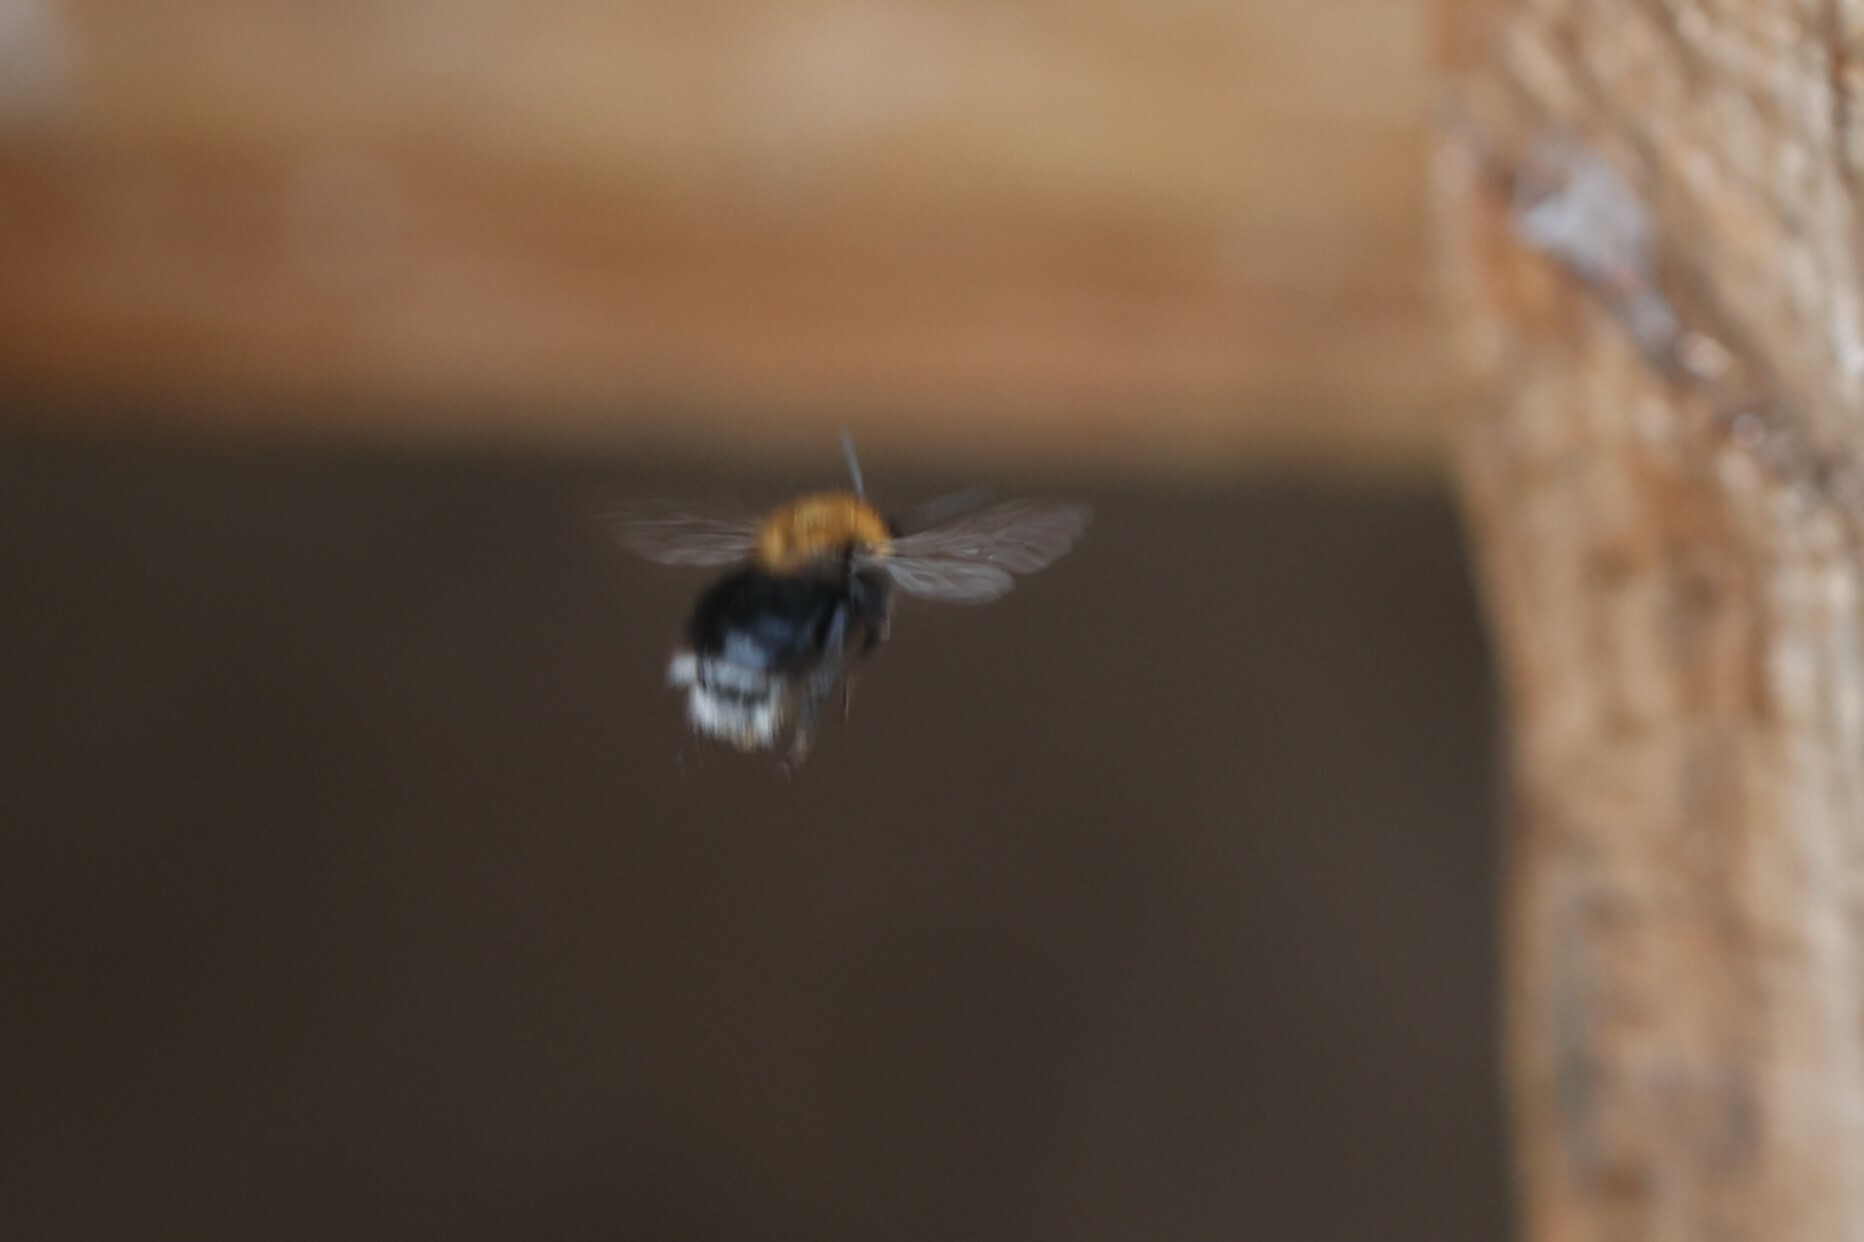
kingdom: Animalia
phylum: Arthropoda
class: Insecta
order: Hymenoptera
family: Apidae
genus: Bombus
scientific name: Bombus hypnorum
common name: New garden bumblebee
